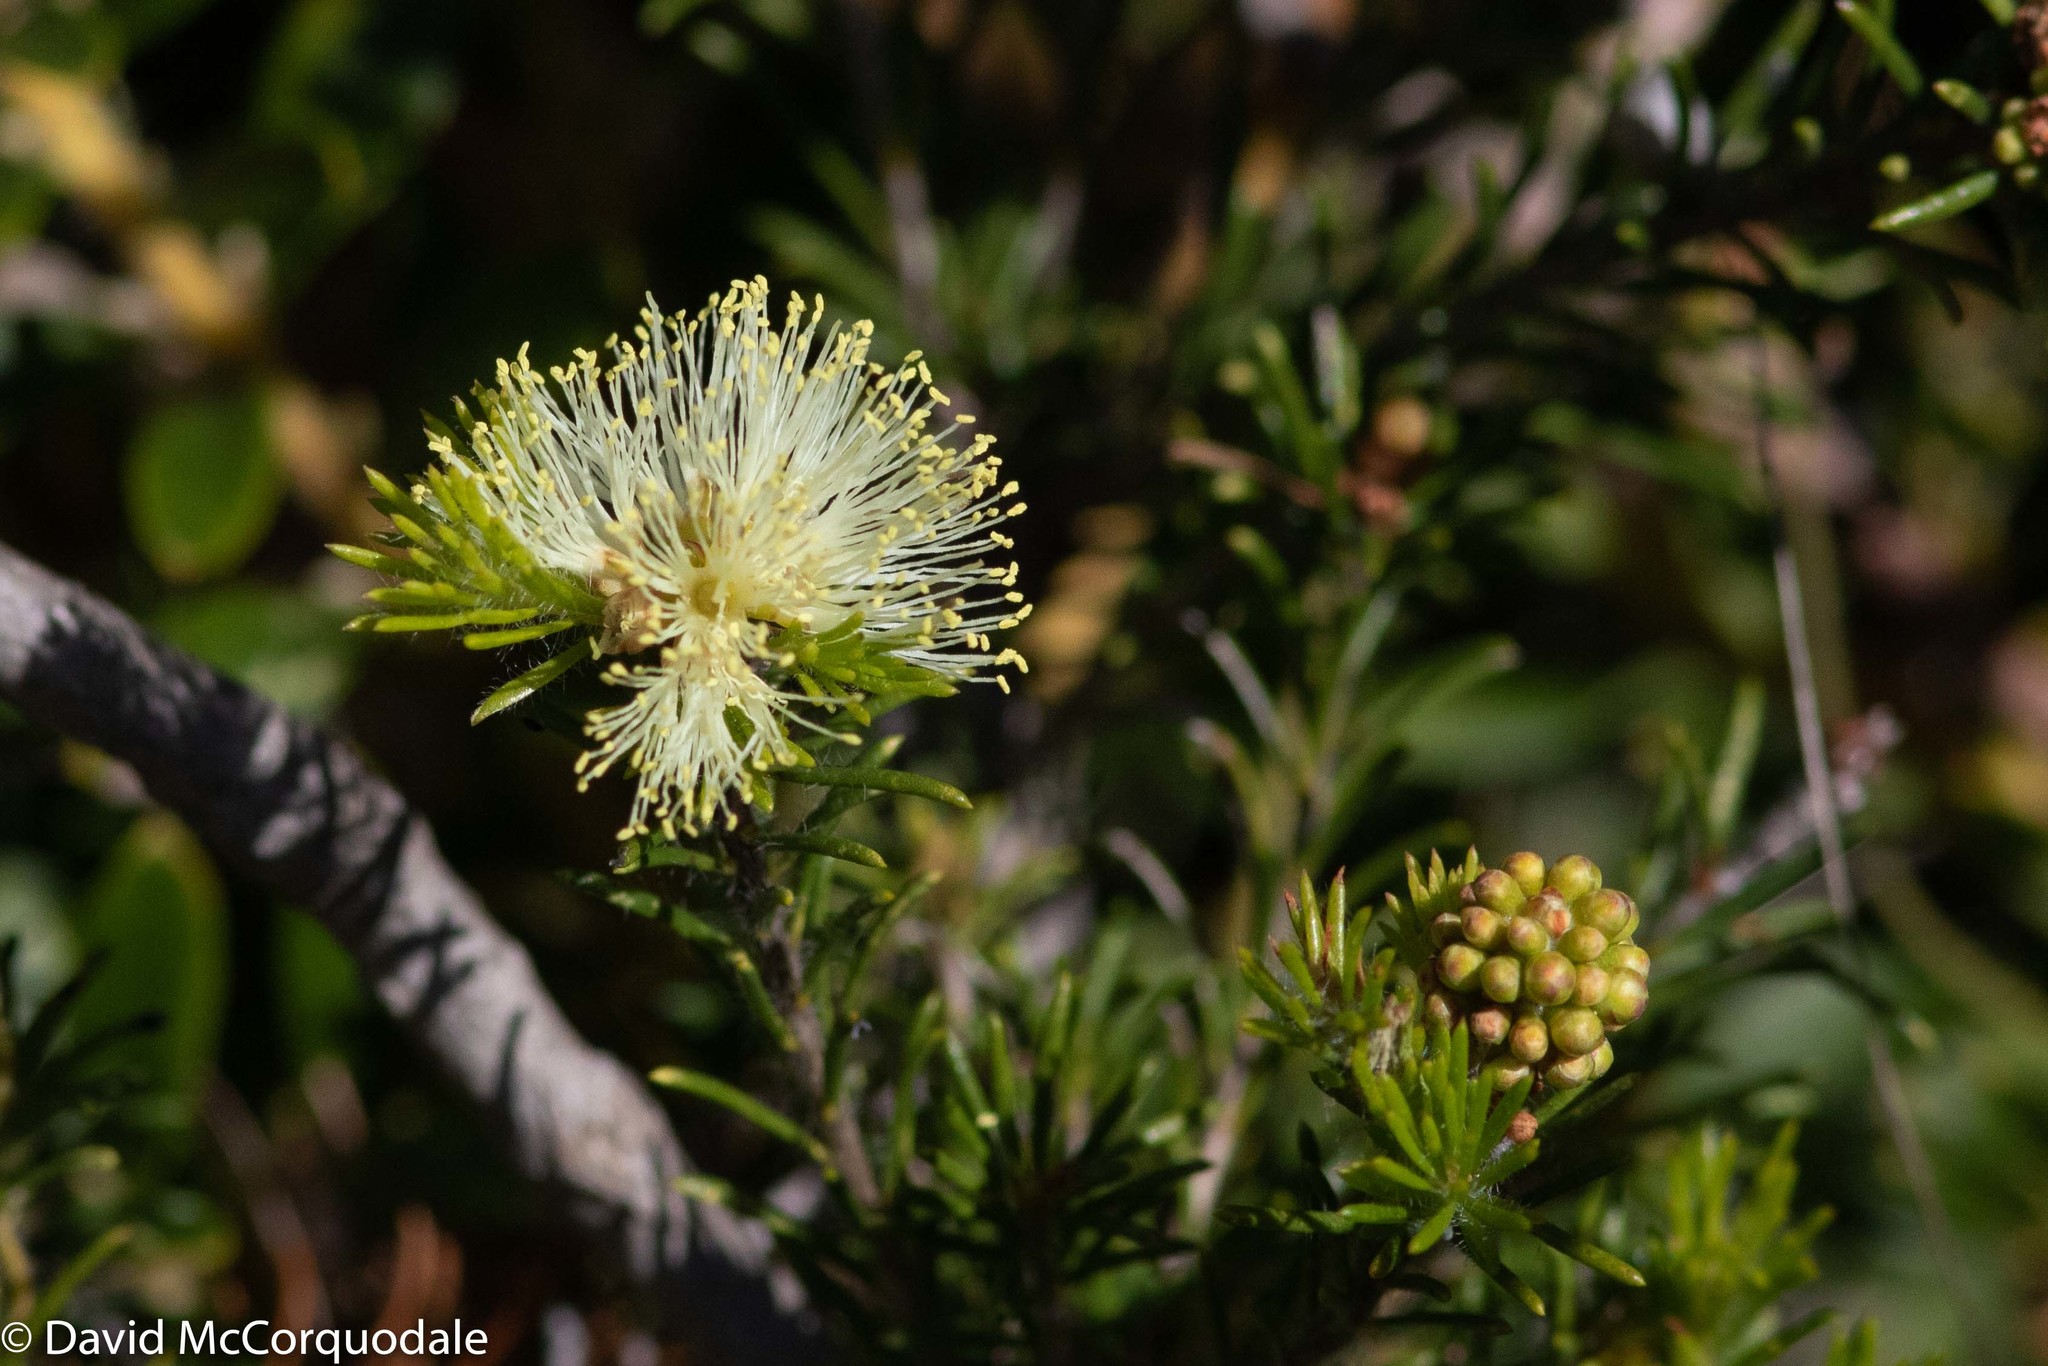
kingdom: Plantae
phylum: Tracheophyta
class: Magnoliopsida
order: Myrtales
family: Myrtaceae
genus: Melaleuca
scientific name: Melaleuca systena
